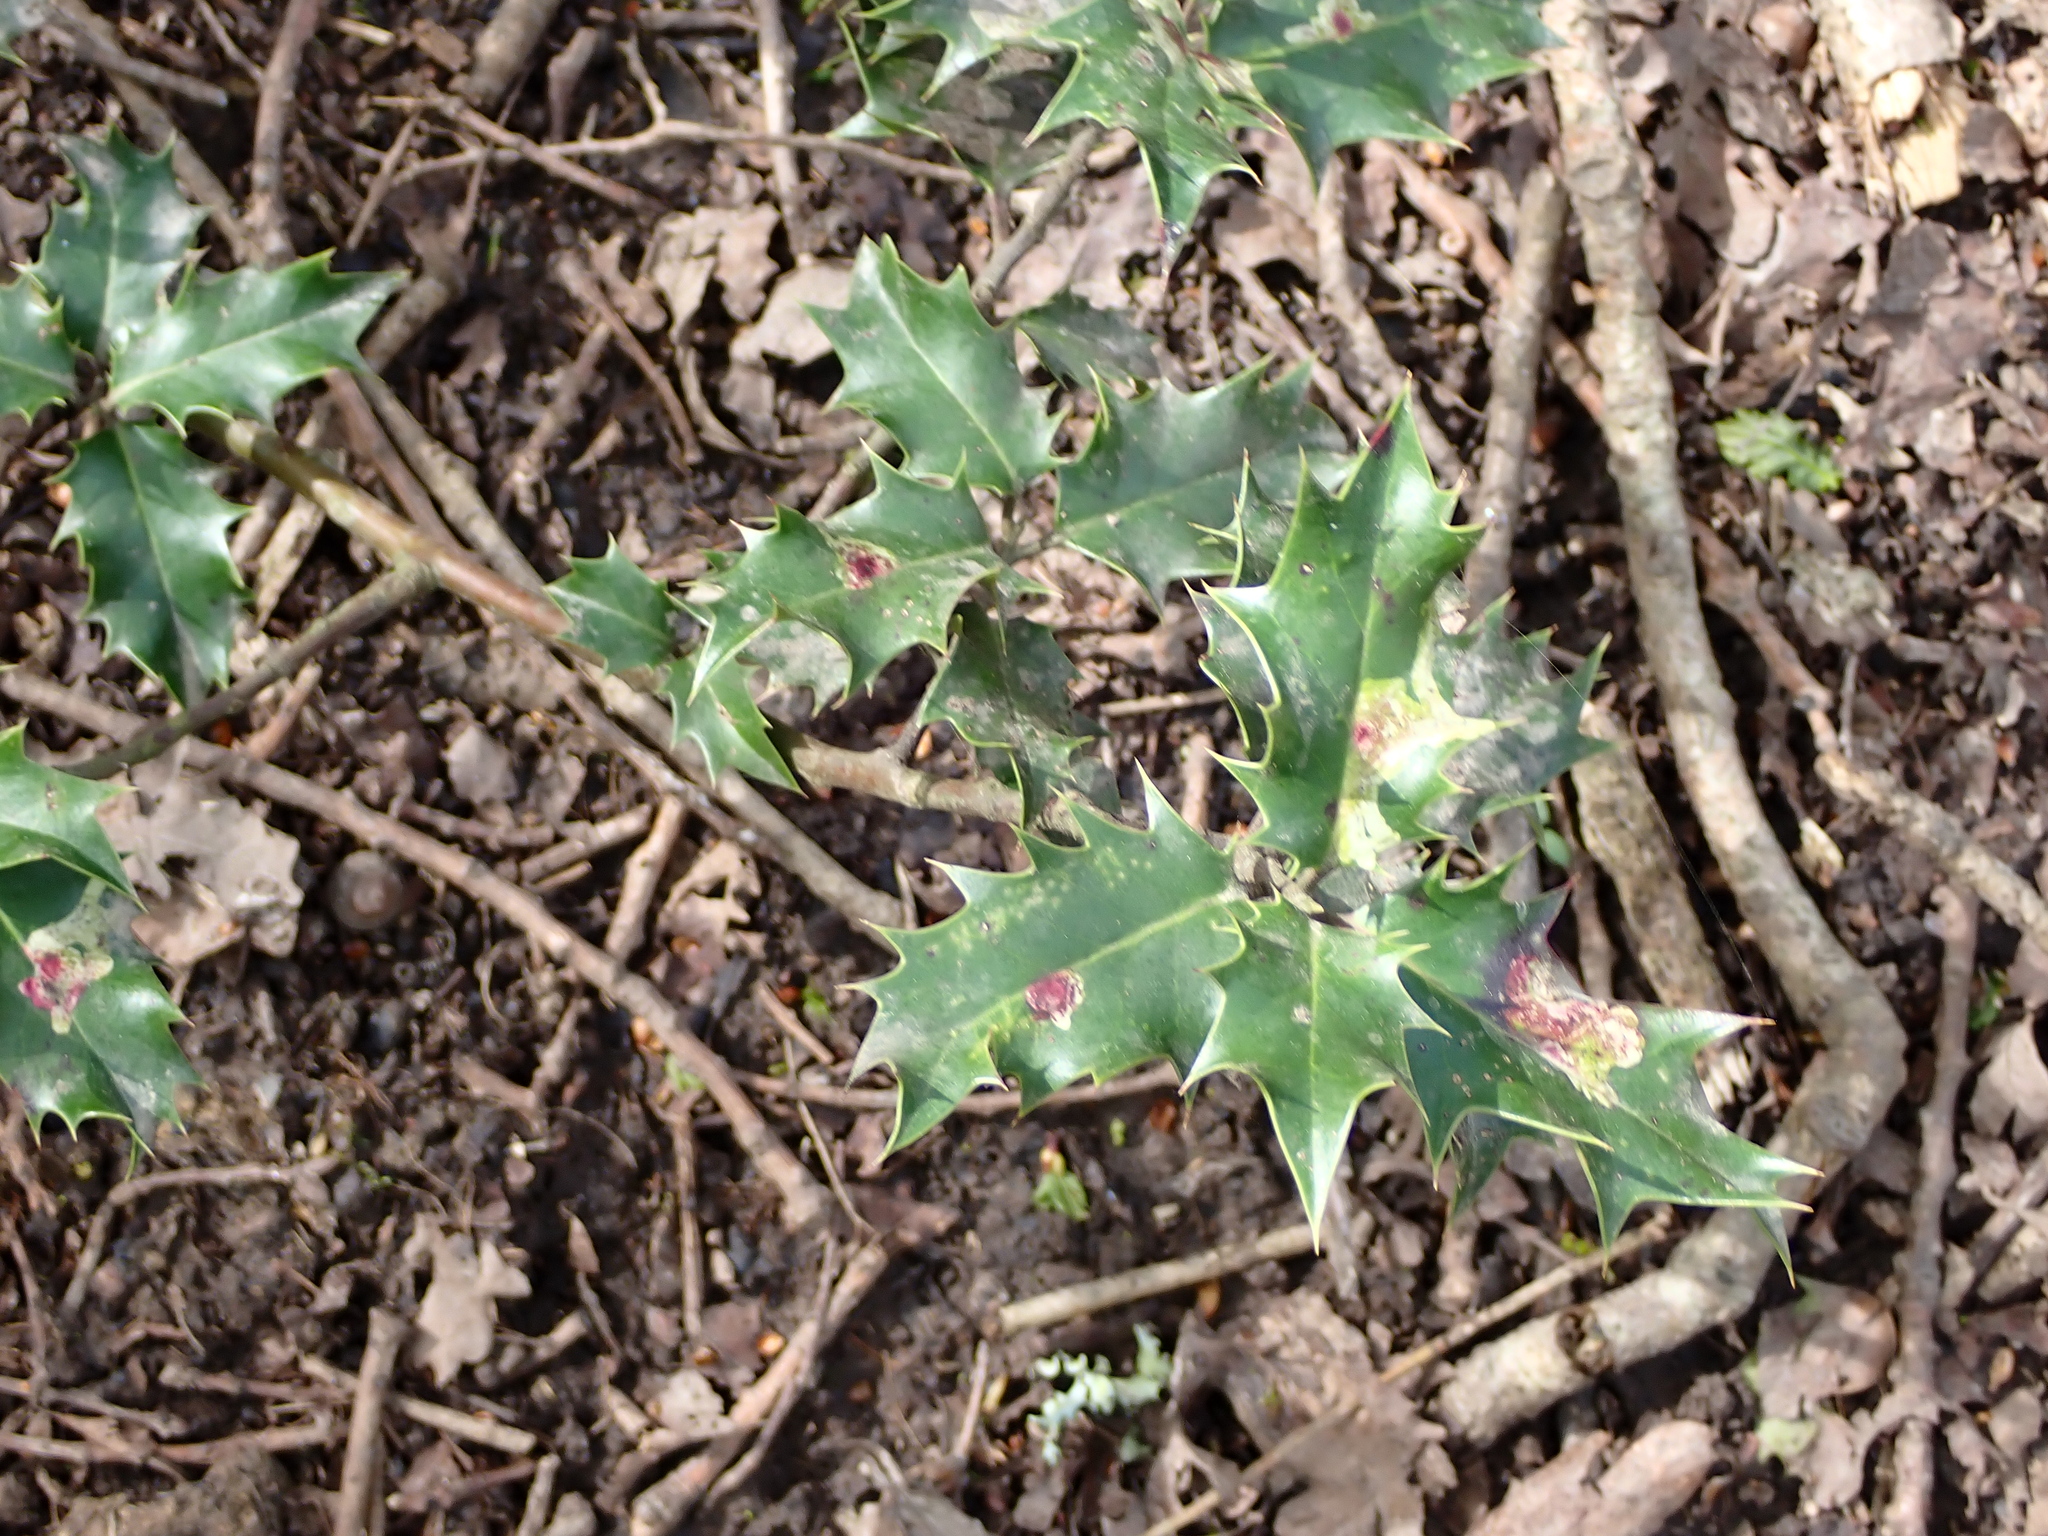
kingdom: Plantae
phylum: Tracheophyta
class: Magnoliopsida
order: Aquifoliales
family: Aquifoliaceae
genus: Ilex
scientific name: Ilex aquifolium
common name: English holly
